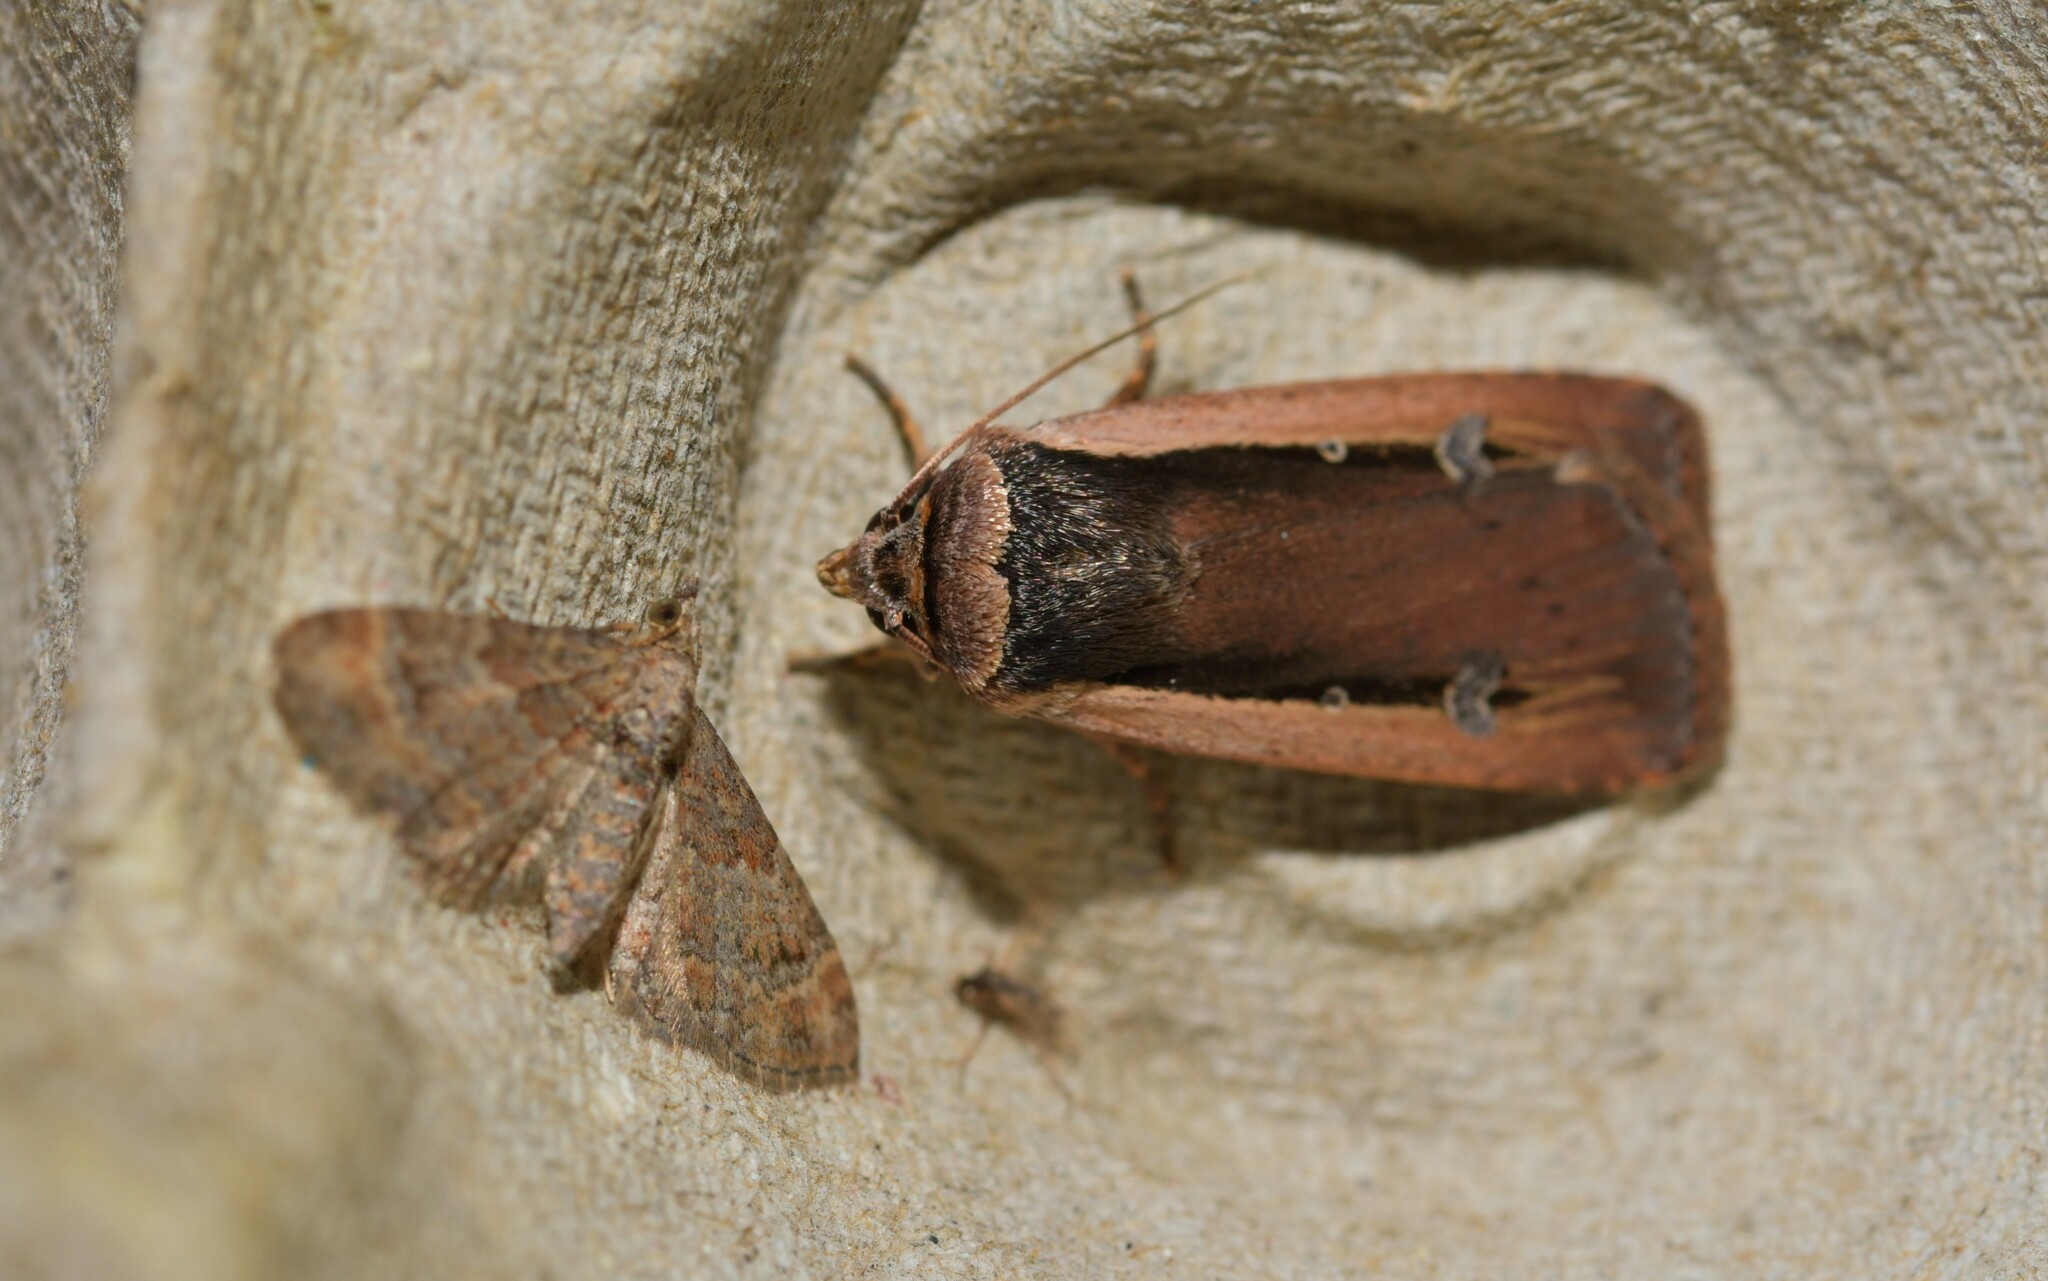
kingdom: Animalia
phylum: Arthropoda
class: Insecta
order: Lepidoptera
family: Noctuidae
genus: Ochropleura
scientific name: Ochropleura leucogaster
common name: Radford's flame shoulder
